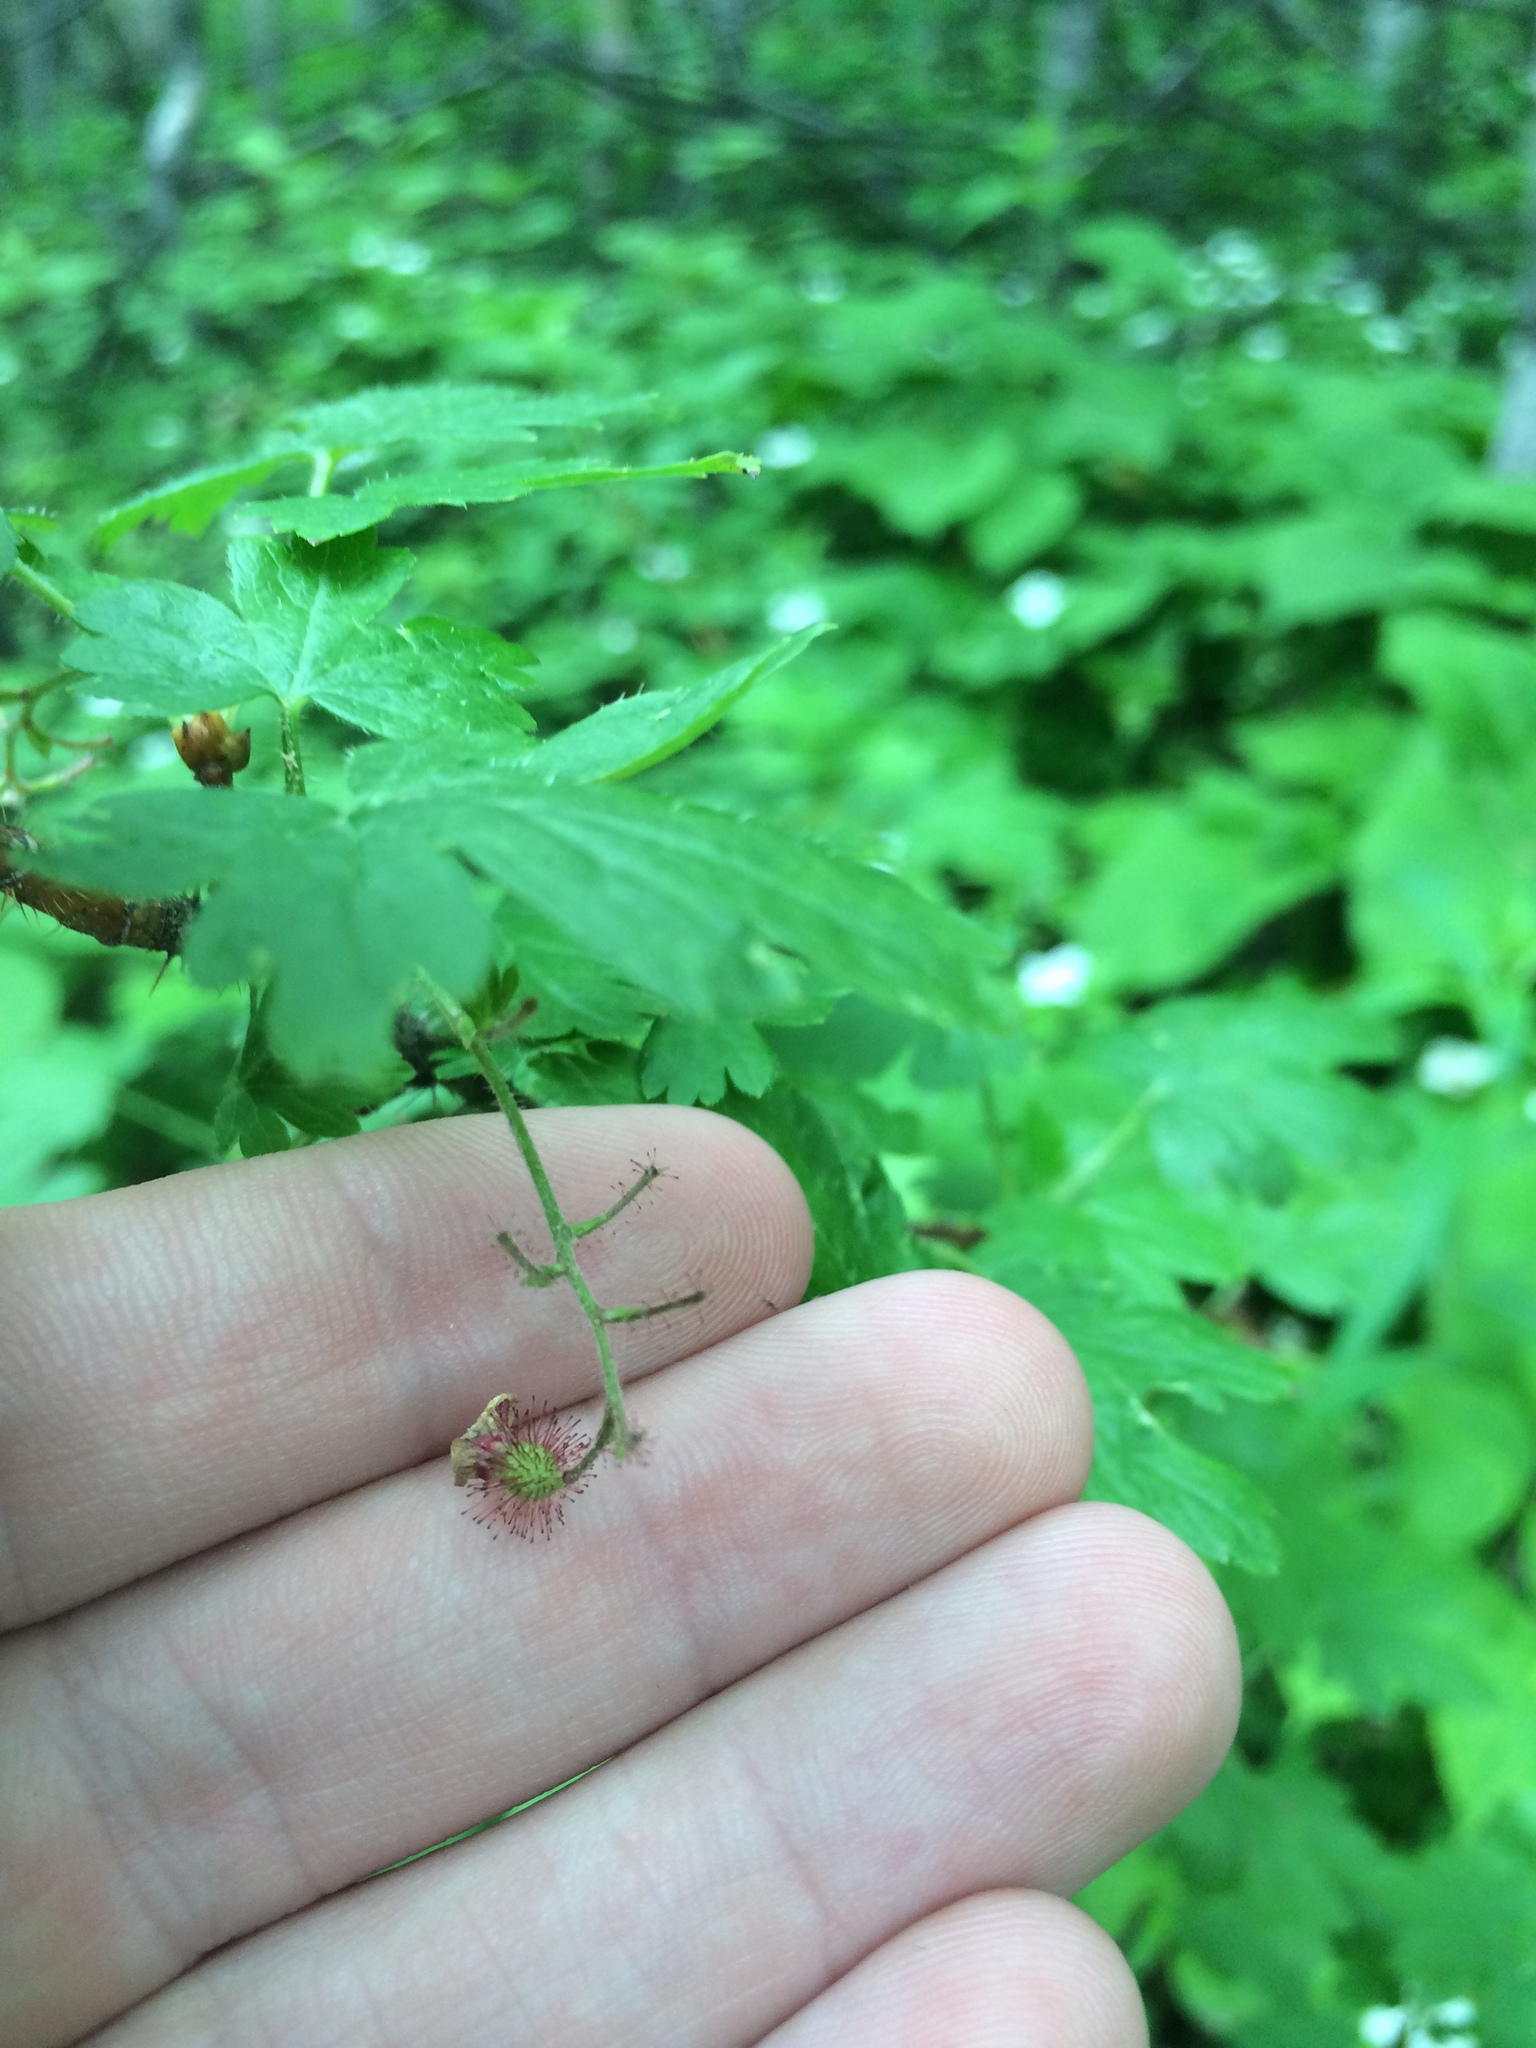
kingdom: Plantae
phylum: Tracheophyta
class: Magnoliopsida
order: Saxifragales
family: Grossulariaceae
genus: Ribes
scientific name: Ribes lacustre
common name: Black gooseberry
